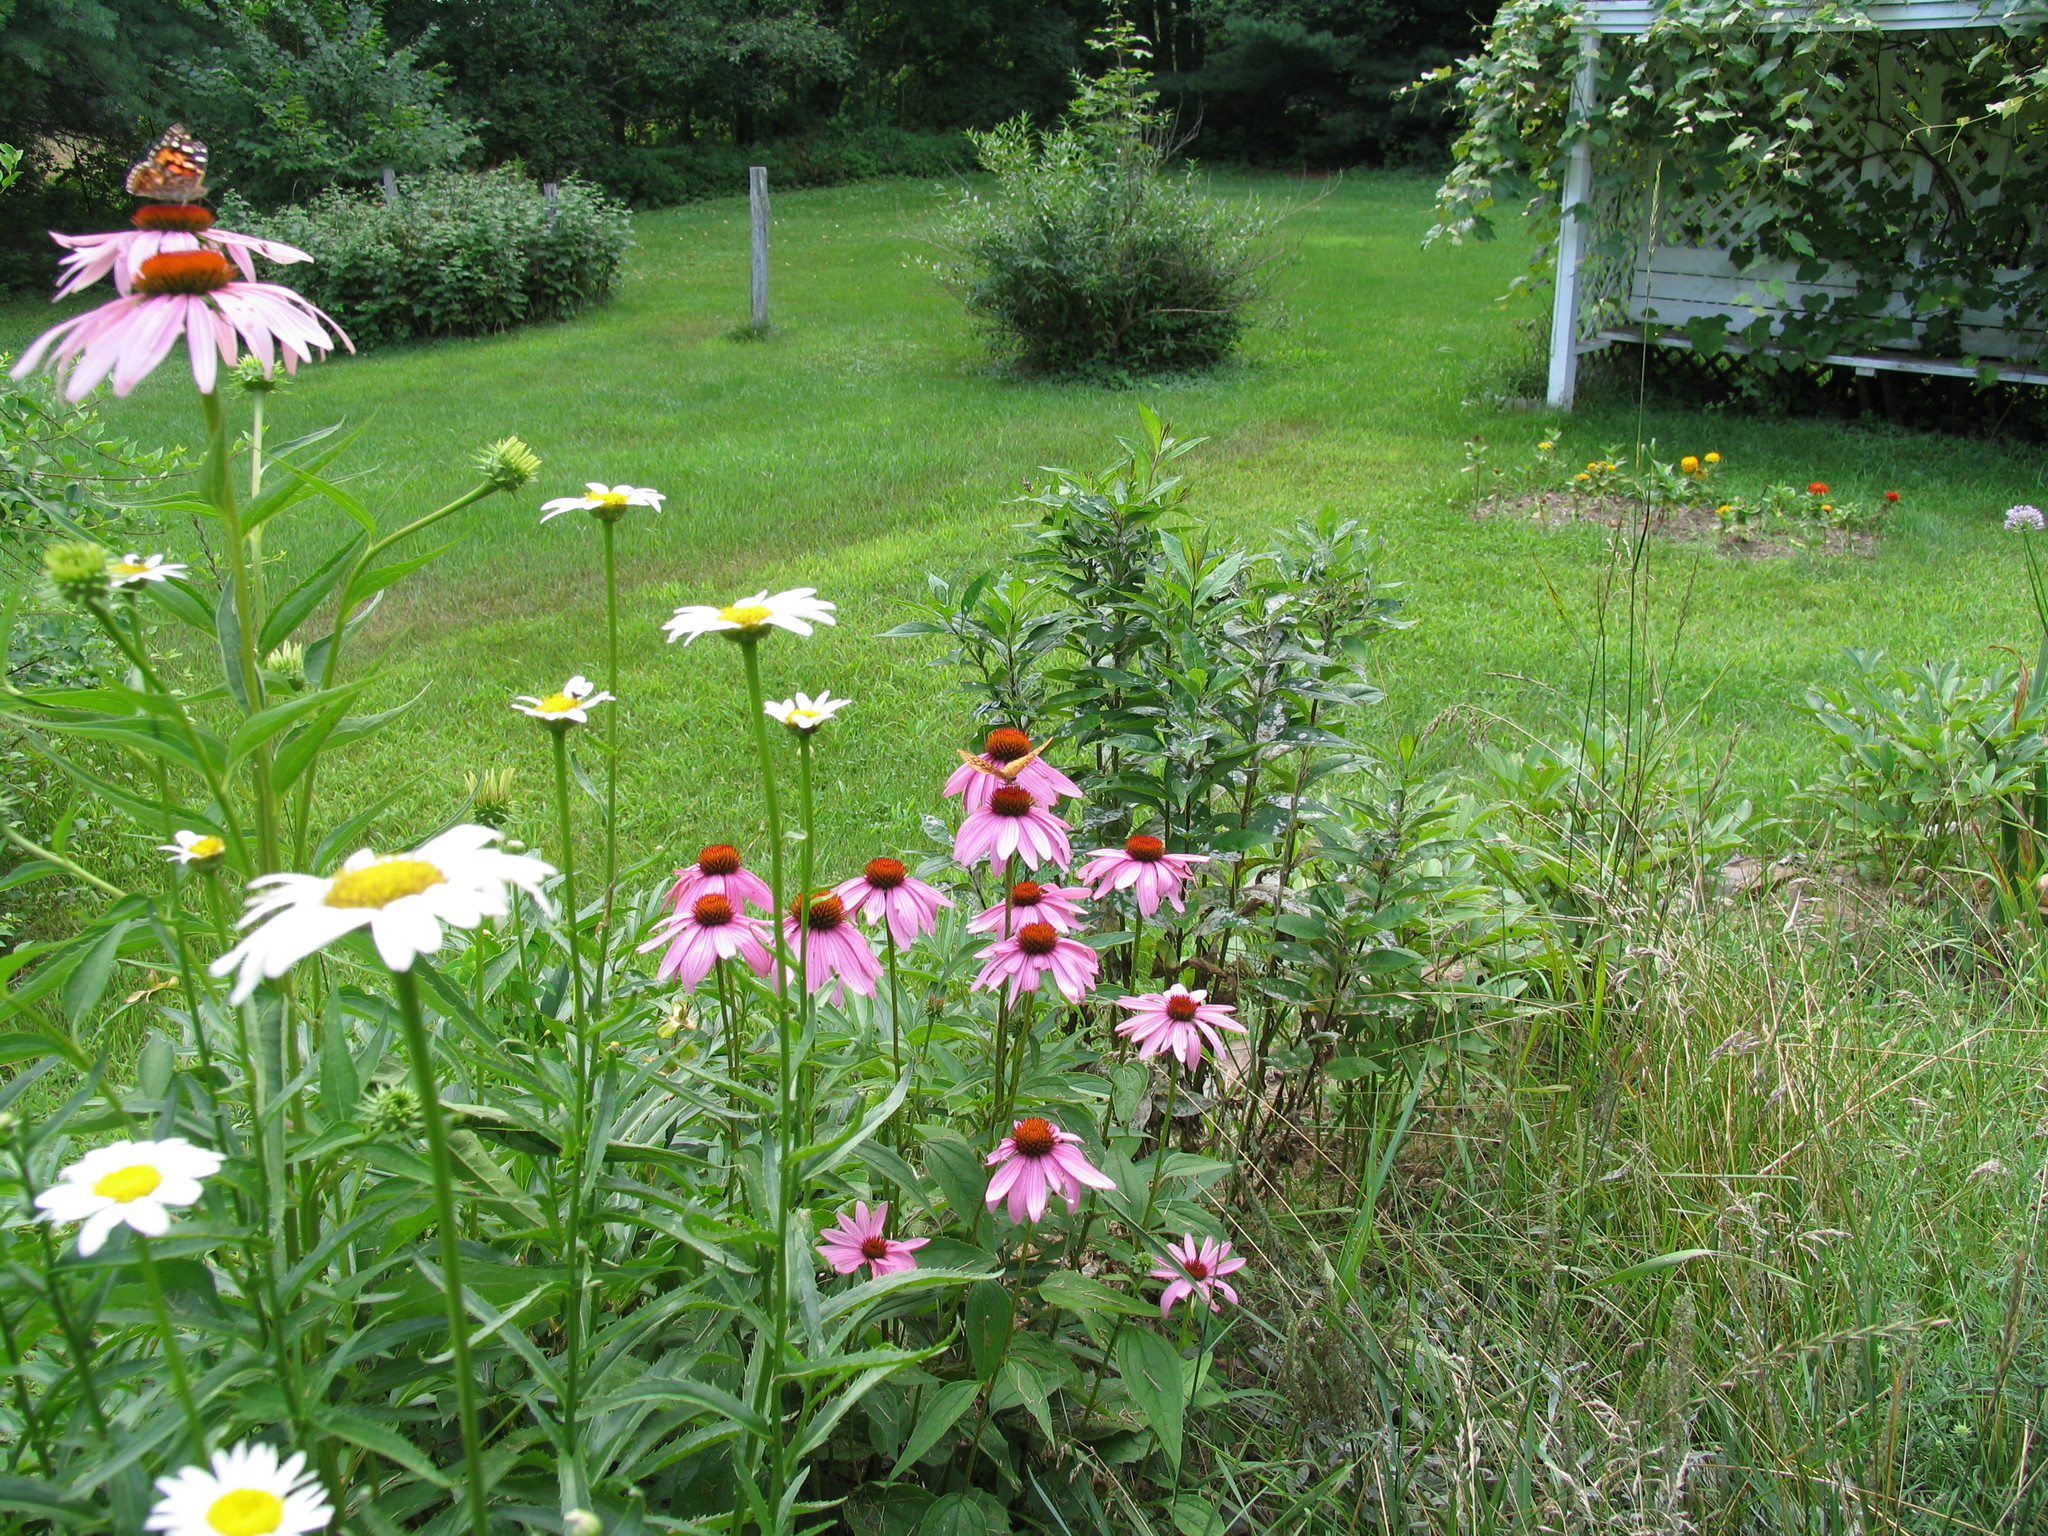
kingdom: Animalia
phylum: Arthropoda
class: Insecta
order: Lepidoptera
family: Nymphalidae
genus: Speyeria
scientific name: Speyeria cybele
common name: Great spangled fritillary
